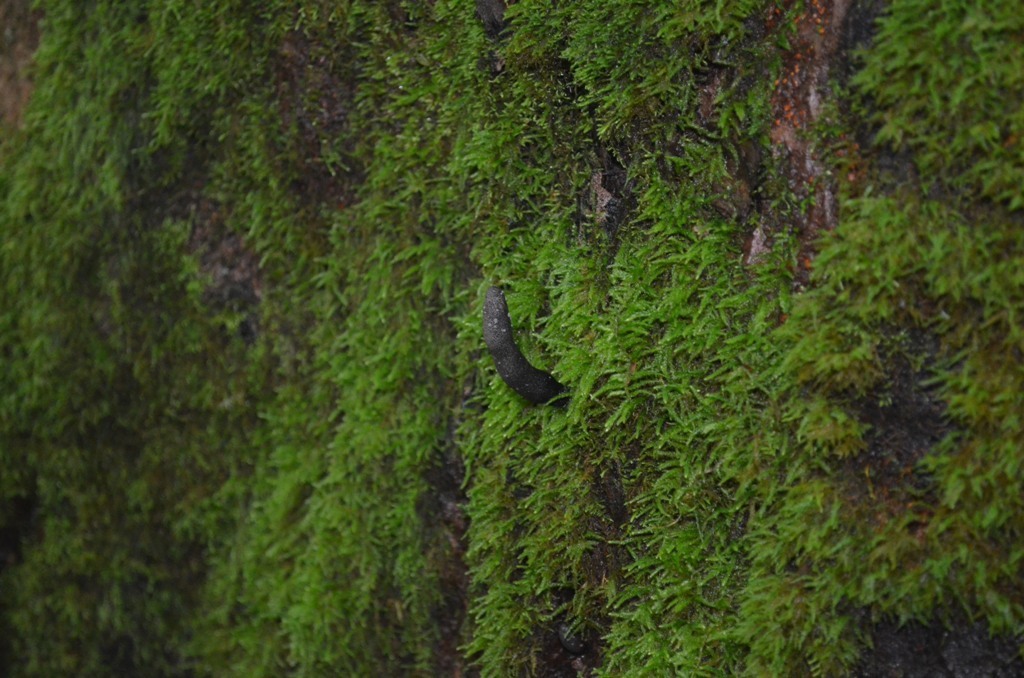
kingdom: Fungi
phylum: Ascomycota
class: Sordariomycetes
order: Xylariales
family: Xylariaceae
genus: Xylaria
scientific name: Xylaria polymorpha
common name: Dead man's fingers
